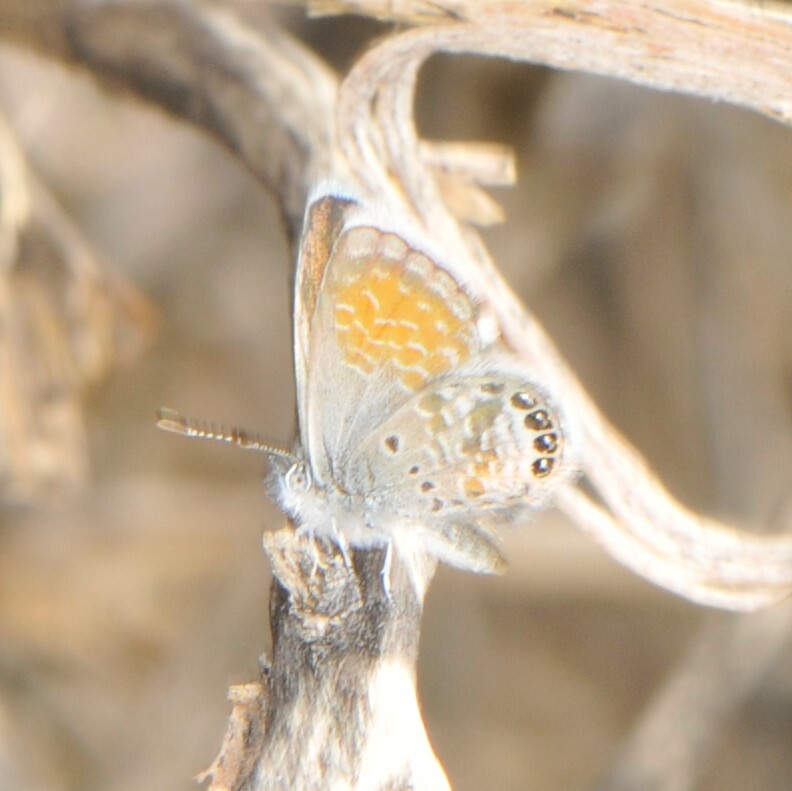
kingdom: Animalia
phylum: Arthropoda
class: Insecta
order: Lepidoptera
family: Lycaenidae
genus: Brephidium
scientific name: Brephidium exilis
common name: Pygmy blue
